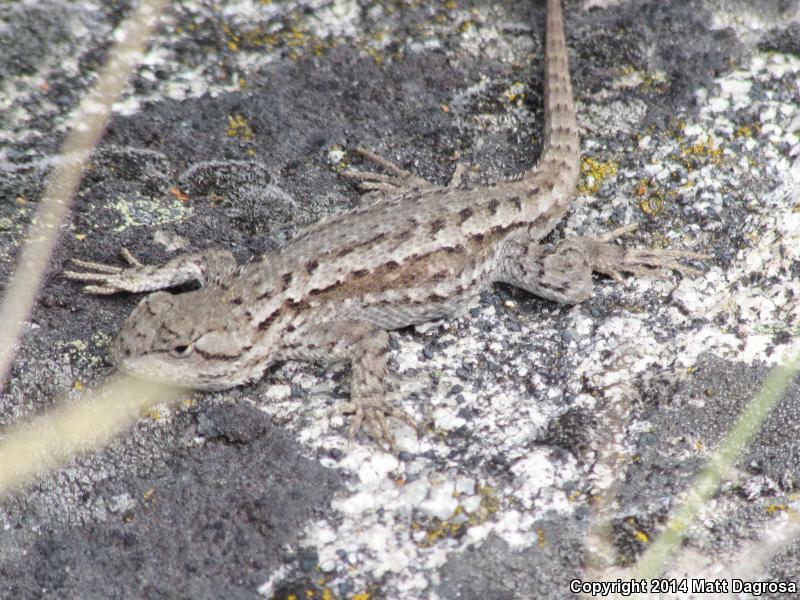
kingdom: Animalia
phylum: Chordata
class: Squamata
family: Phrynosomatidae
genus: Sceloporus
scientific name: Sceloporus occidentalis
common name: Western fence lizard
